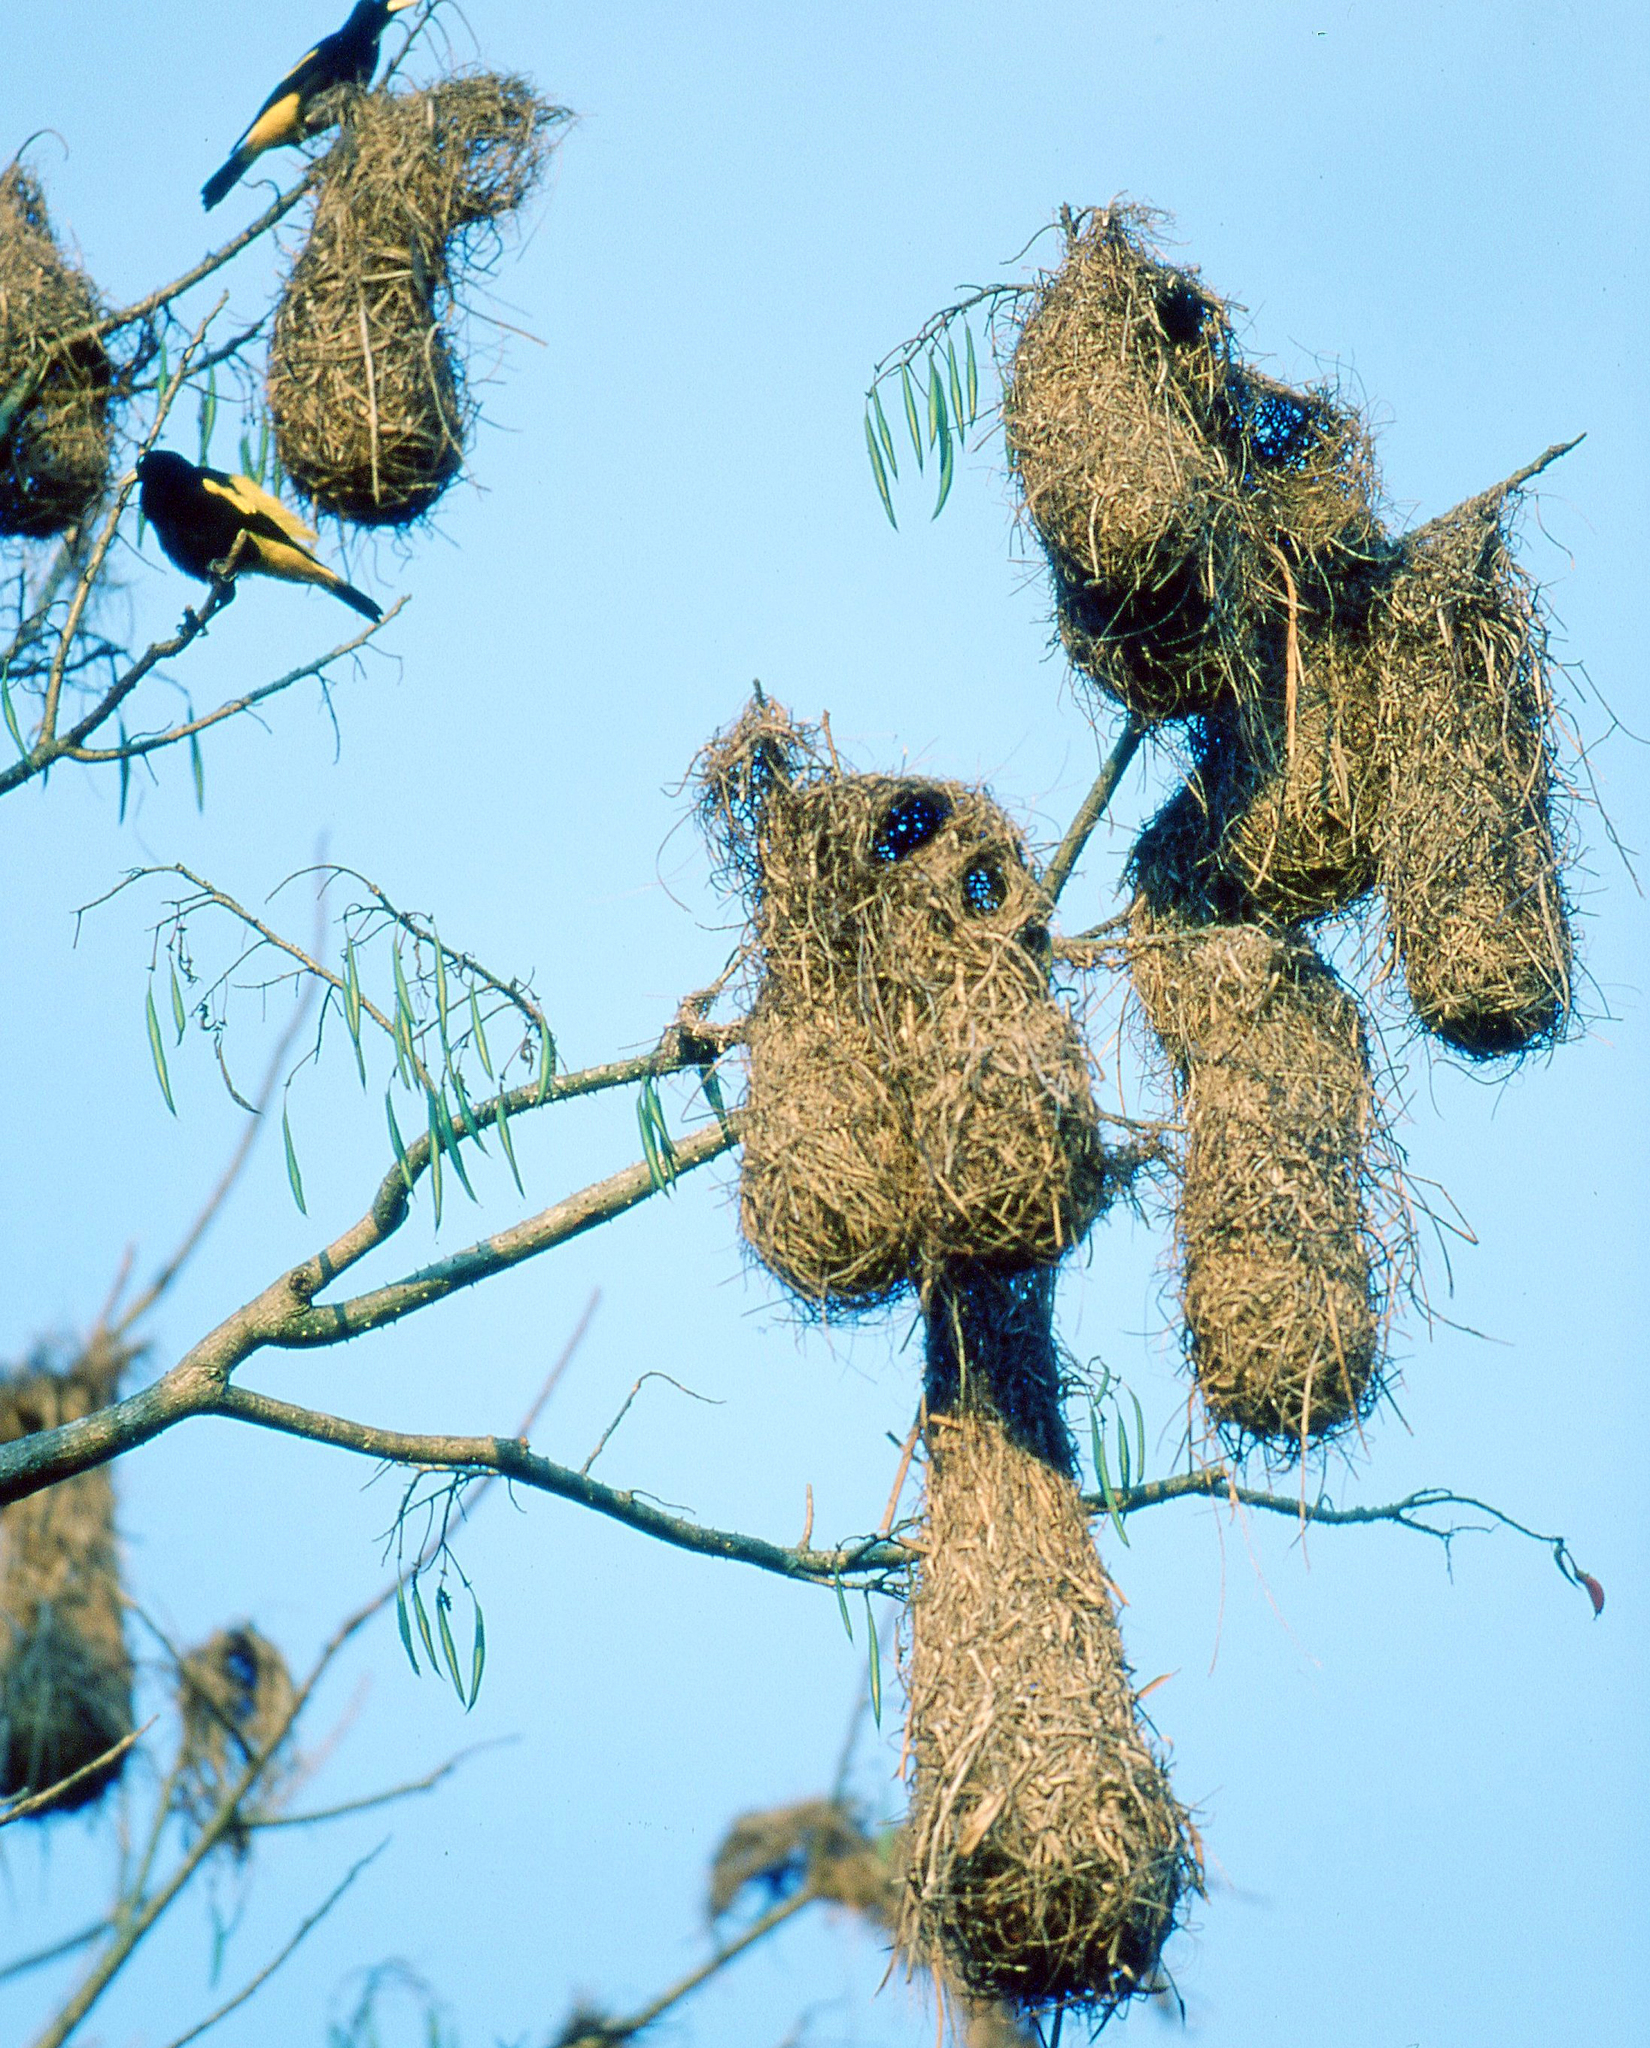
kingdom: Animalia
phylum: Chordata
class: Aves
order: Passeriformes
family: Icteridae
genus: Cacicus
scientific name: Cacicus cela
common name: Yellow-rumped cacique
